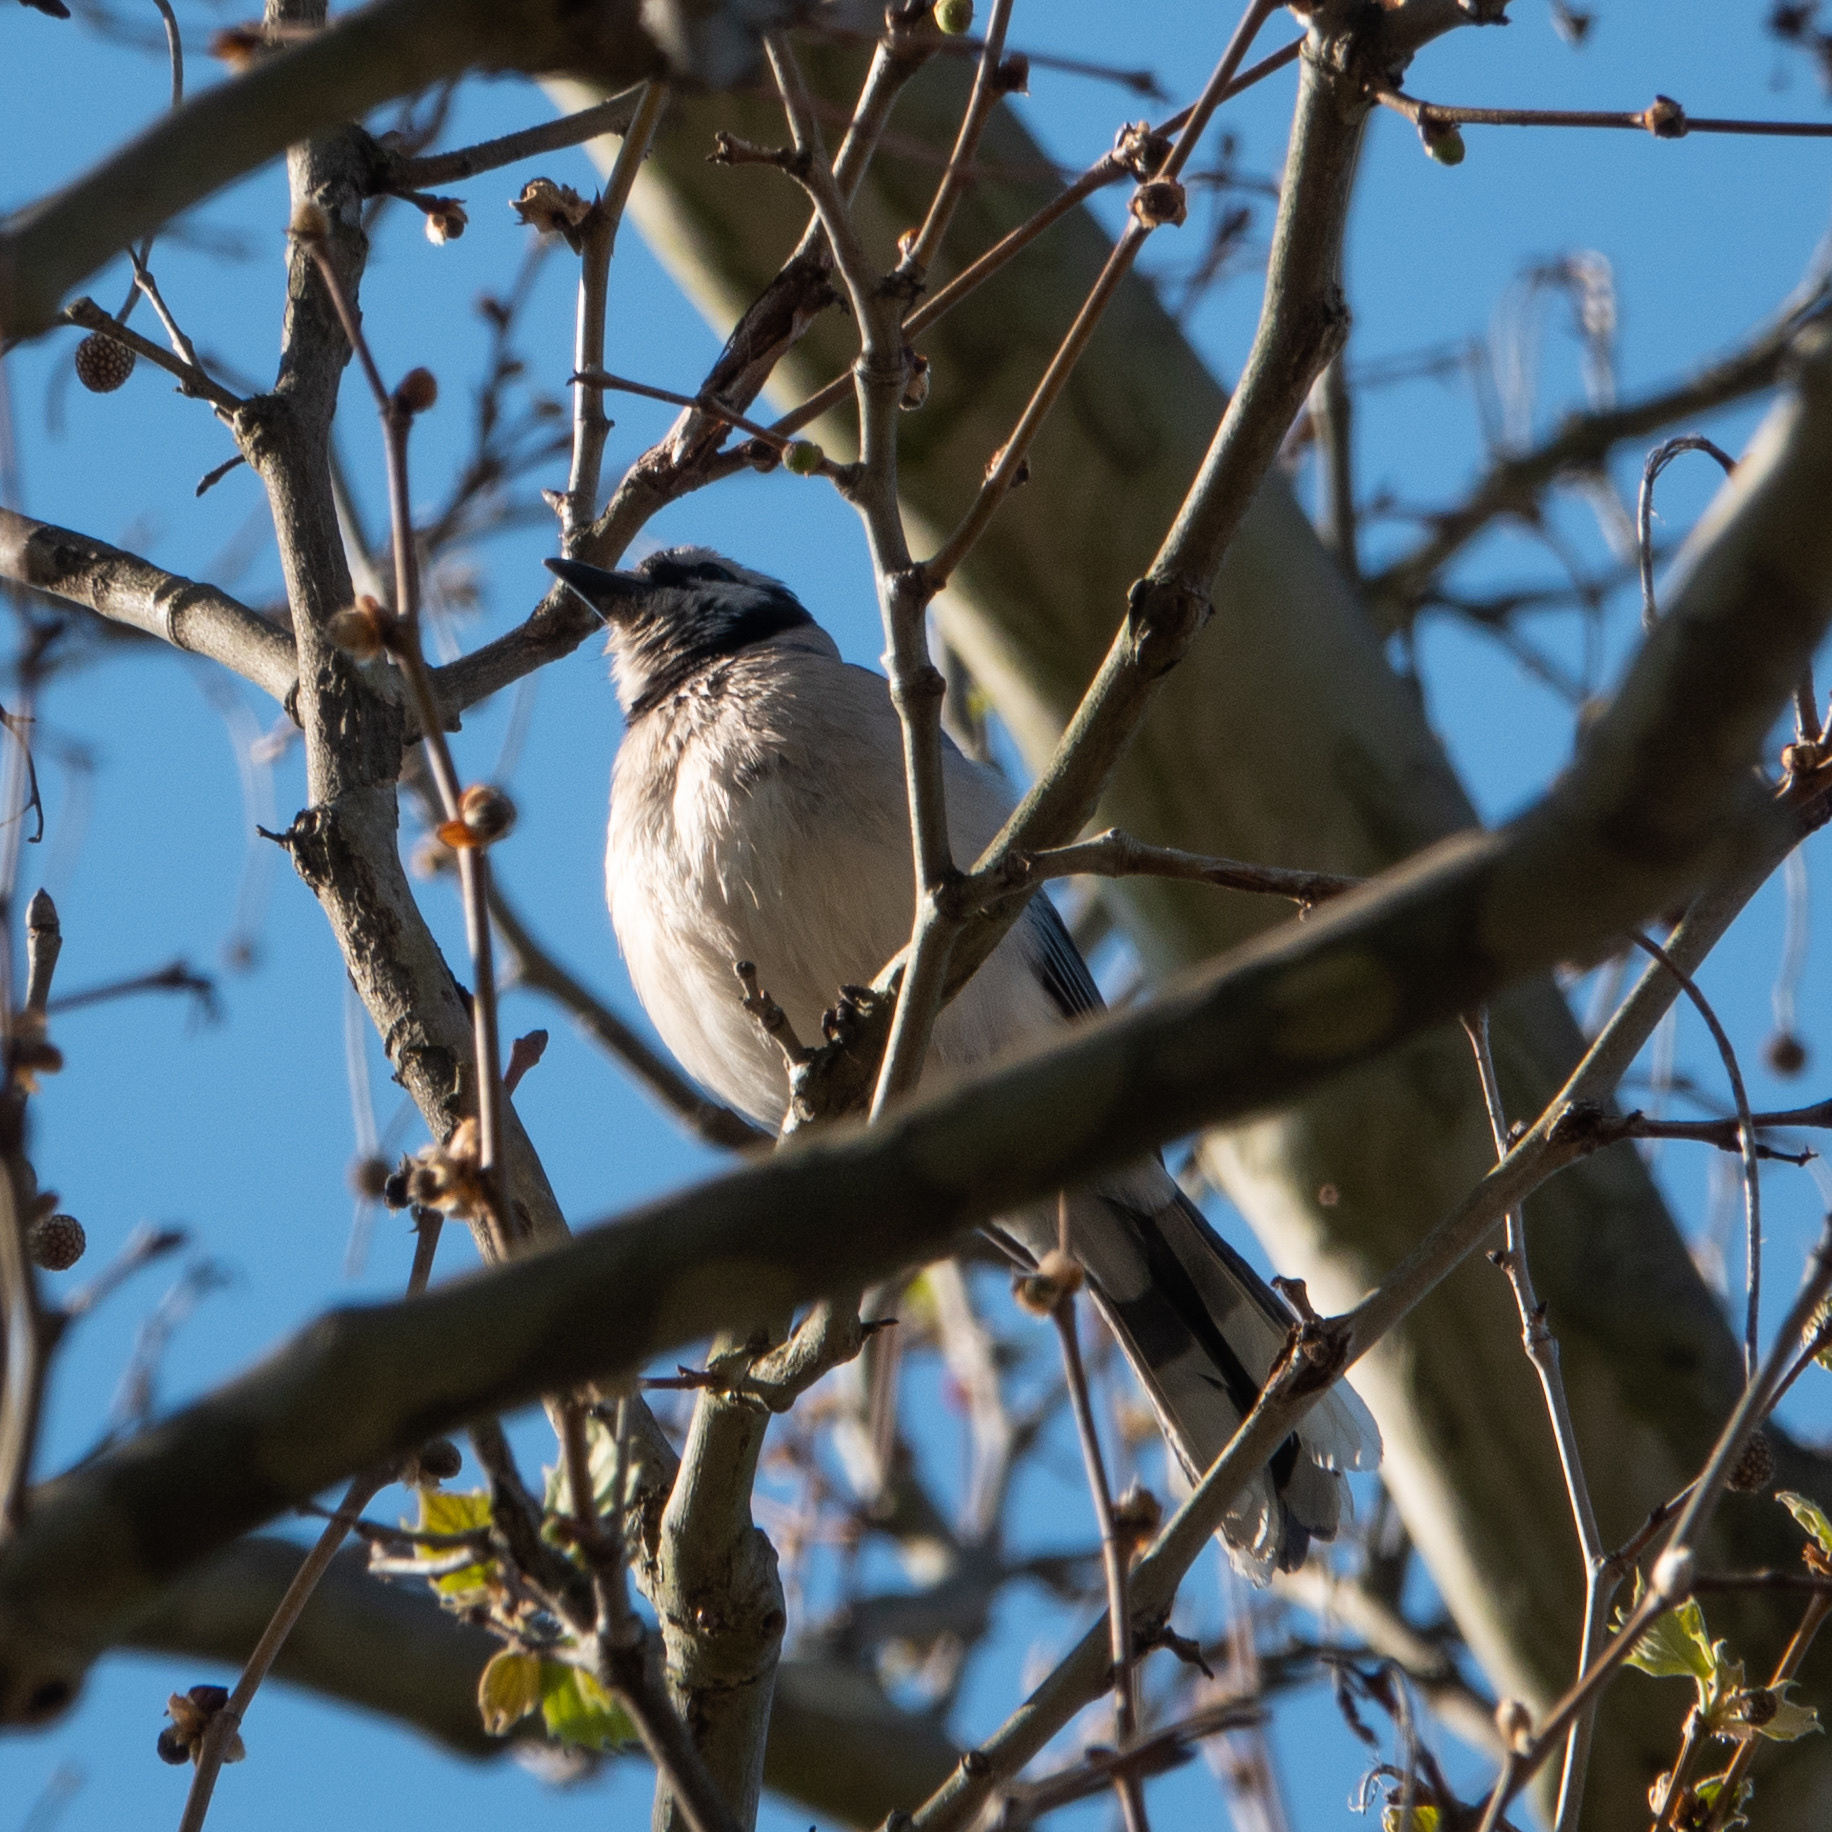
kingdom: Animalia
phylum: Chordata
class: Aves
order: Passeriformes
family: Corvidae
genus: Cyanocitta
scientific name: Cyanocitta cristata
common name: Blue jay
